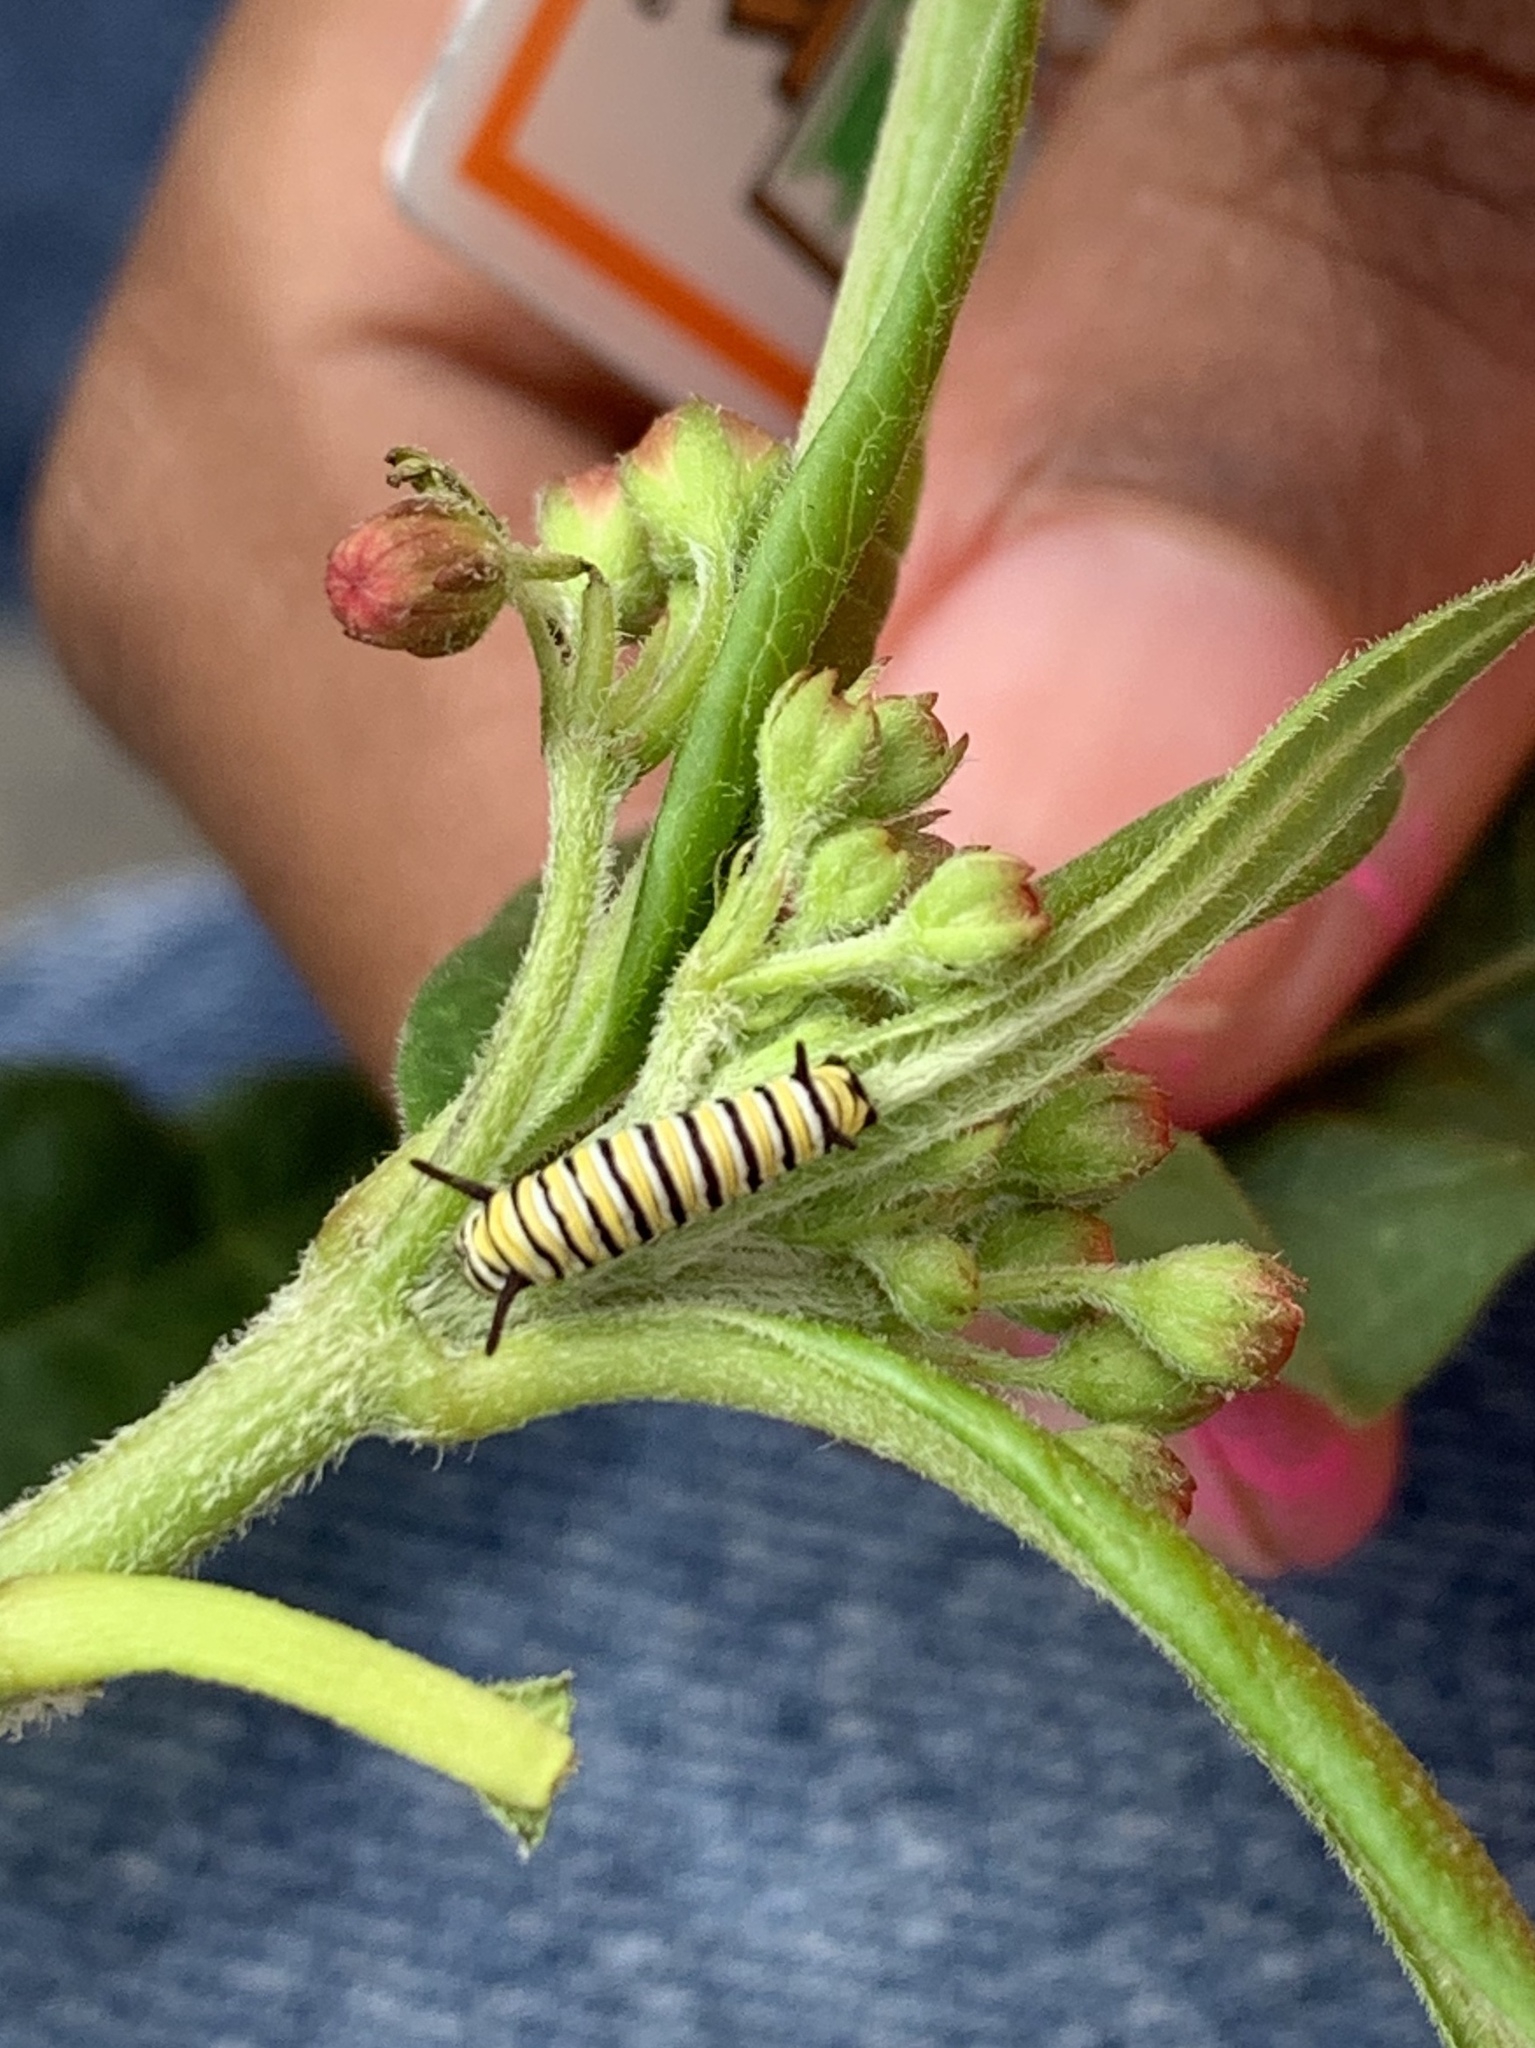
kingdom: Animalia
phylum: Arthropoda
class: Insecta
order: Lepidoptera
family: Nymphalidae
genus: Danaus
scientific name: Danaus plexippus
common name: Monarch
